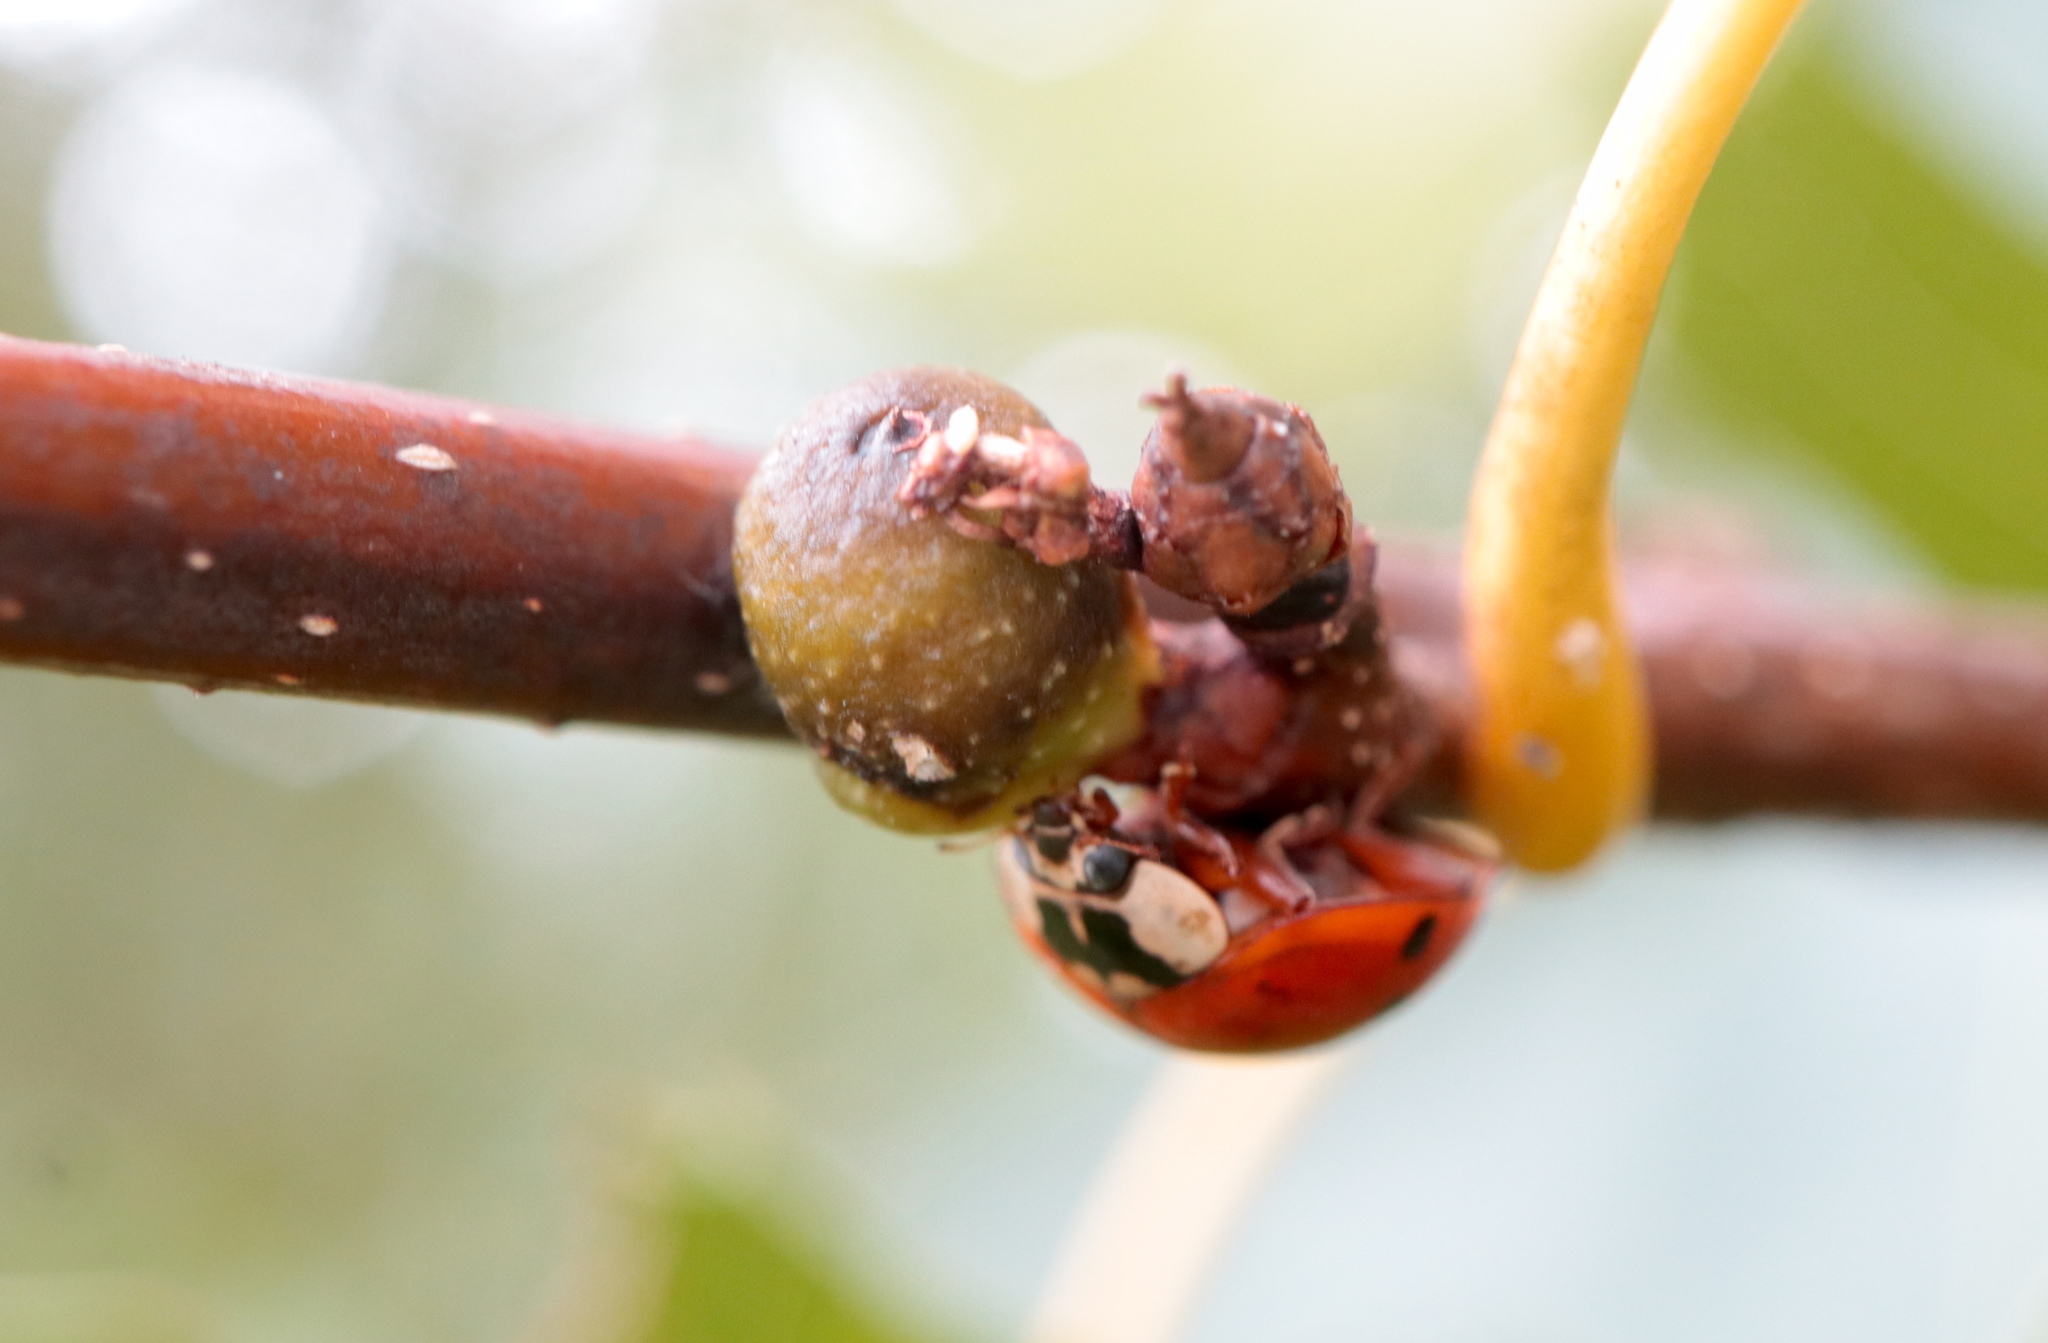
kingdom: Animalia
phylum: Arthropoda
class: Insecta
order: Hymenoptera
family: Cynipidae
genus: Callirhytis
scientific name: Callirhytis
